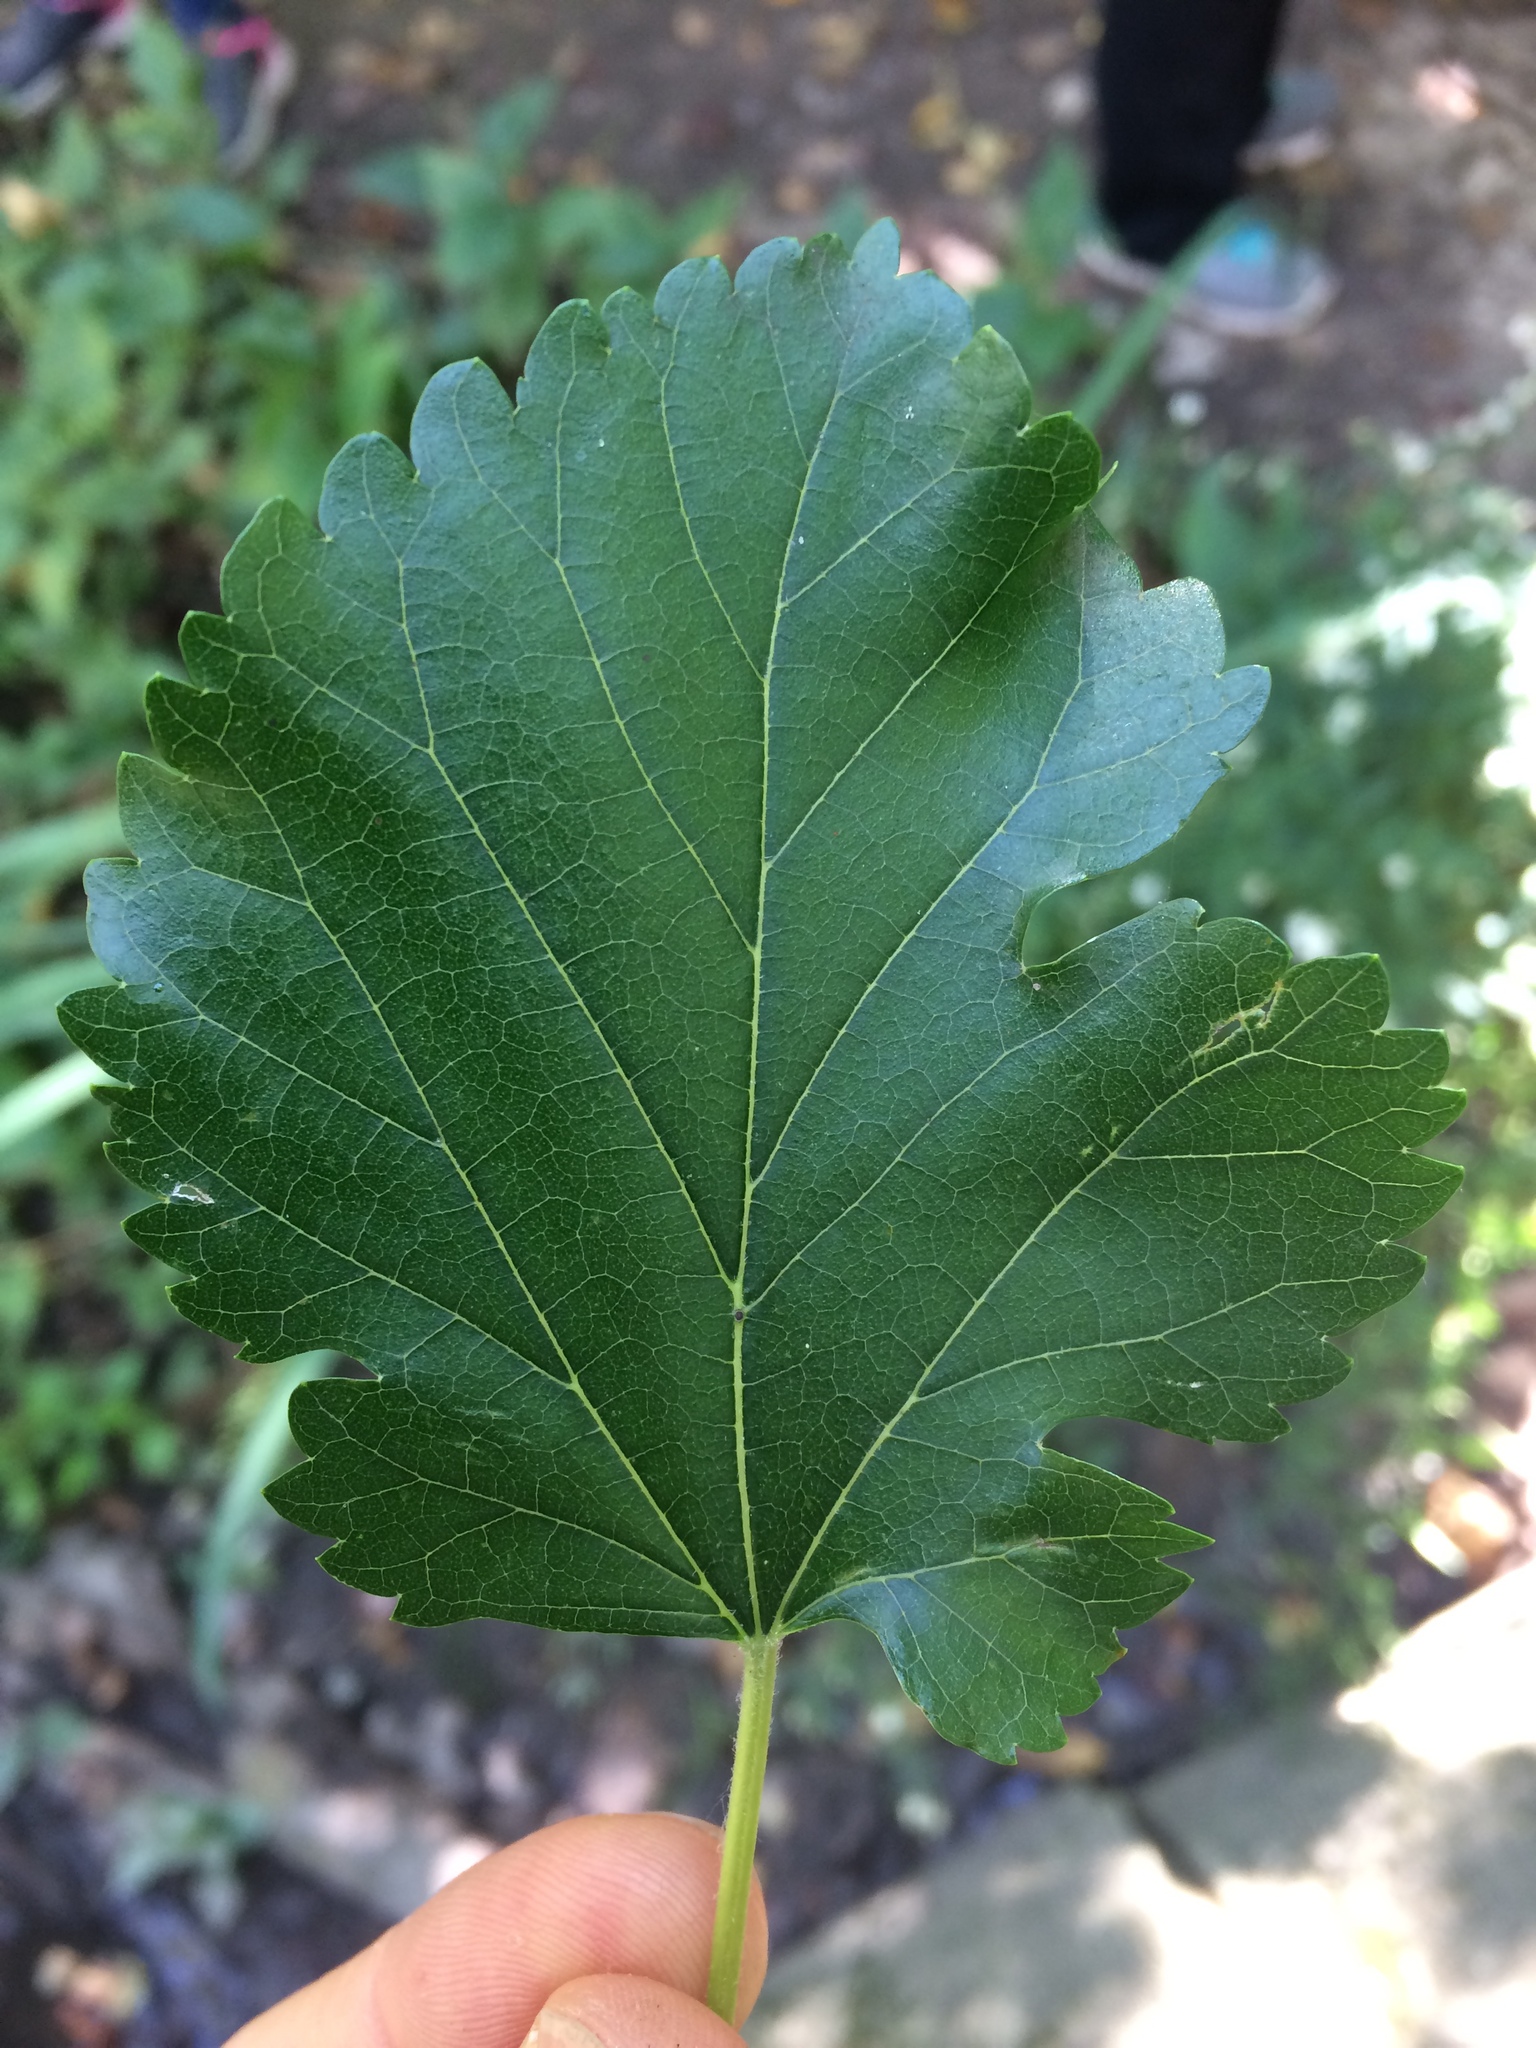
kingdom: Plantae
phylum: Tracheophyta
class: Magnoliopsida
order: Rosales
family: Moraceae
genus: Morus
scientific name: Morus alba
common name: White mulberry
